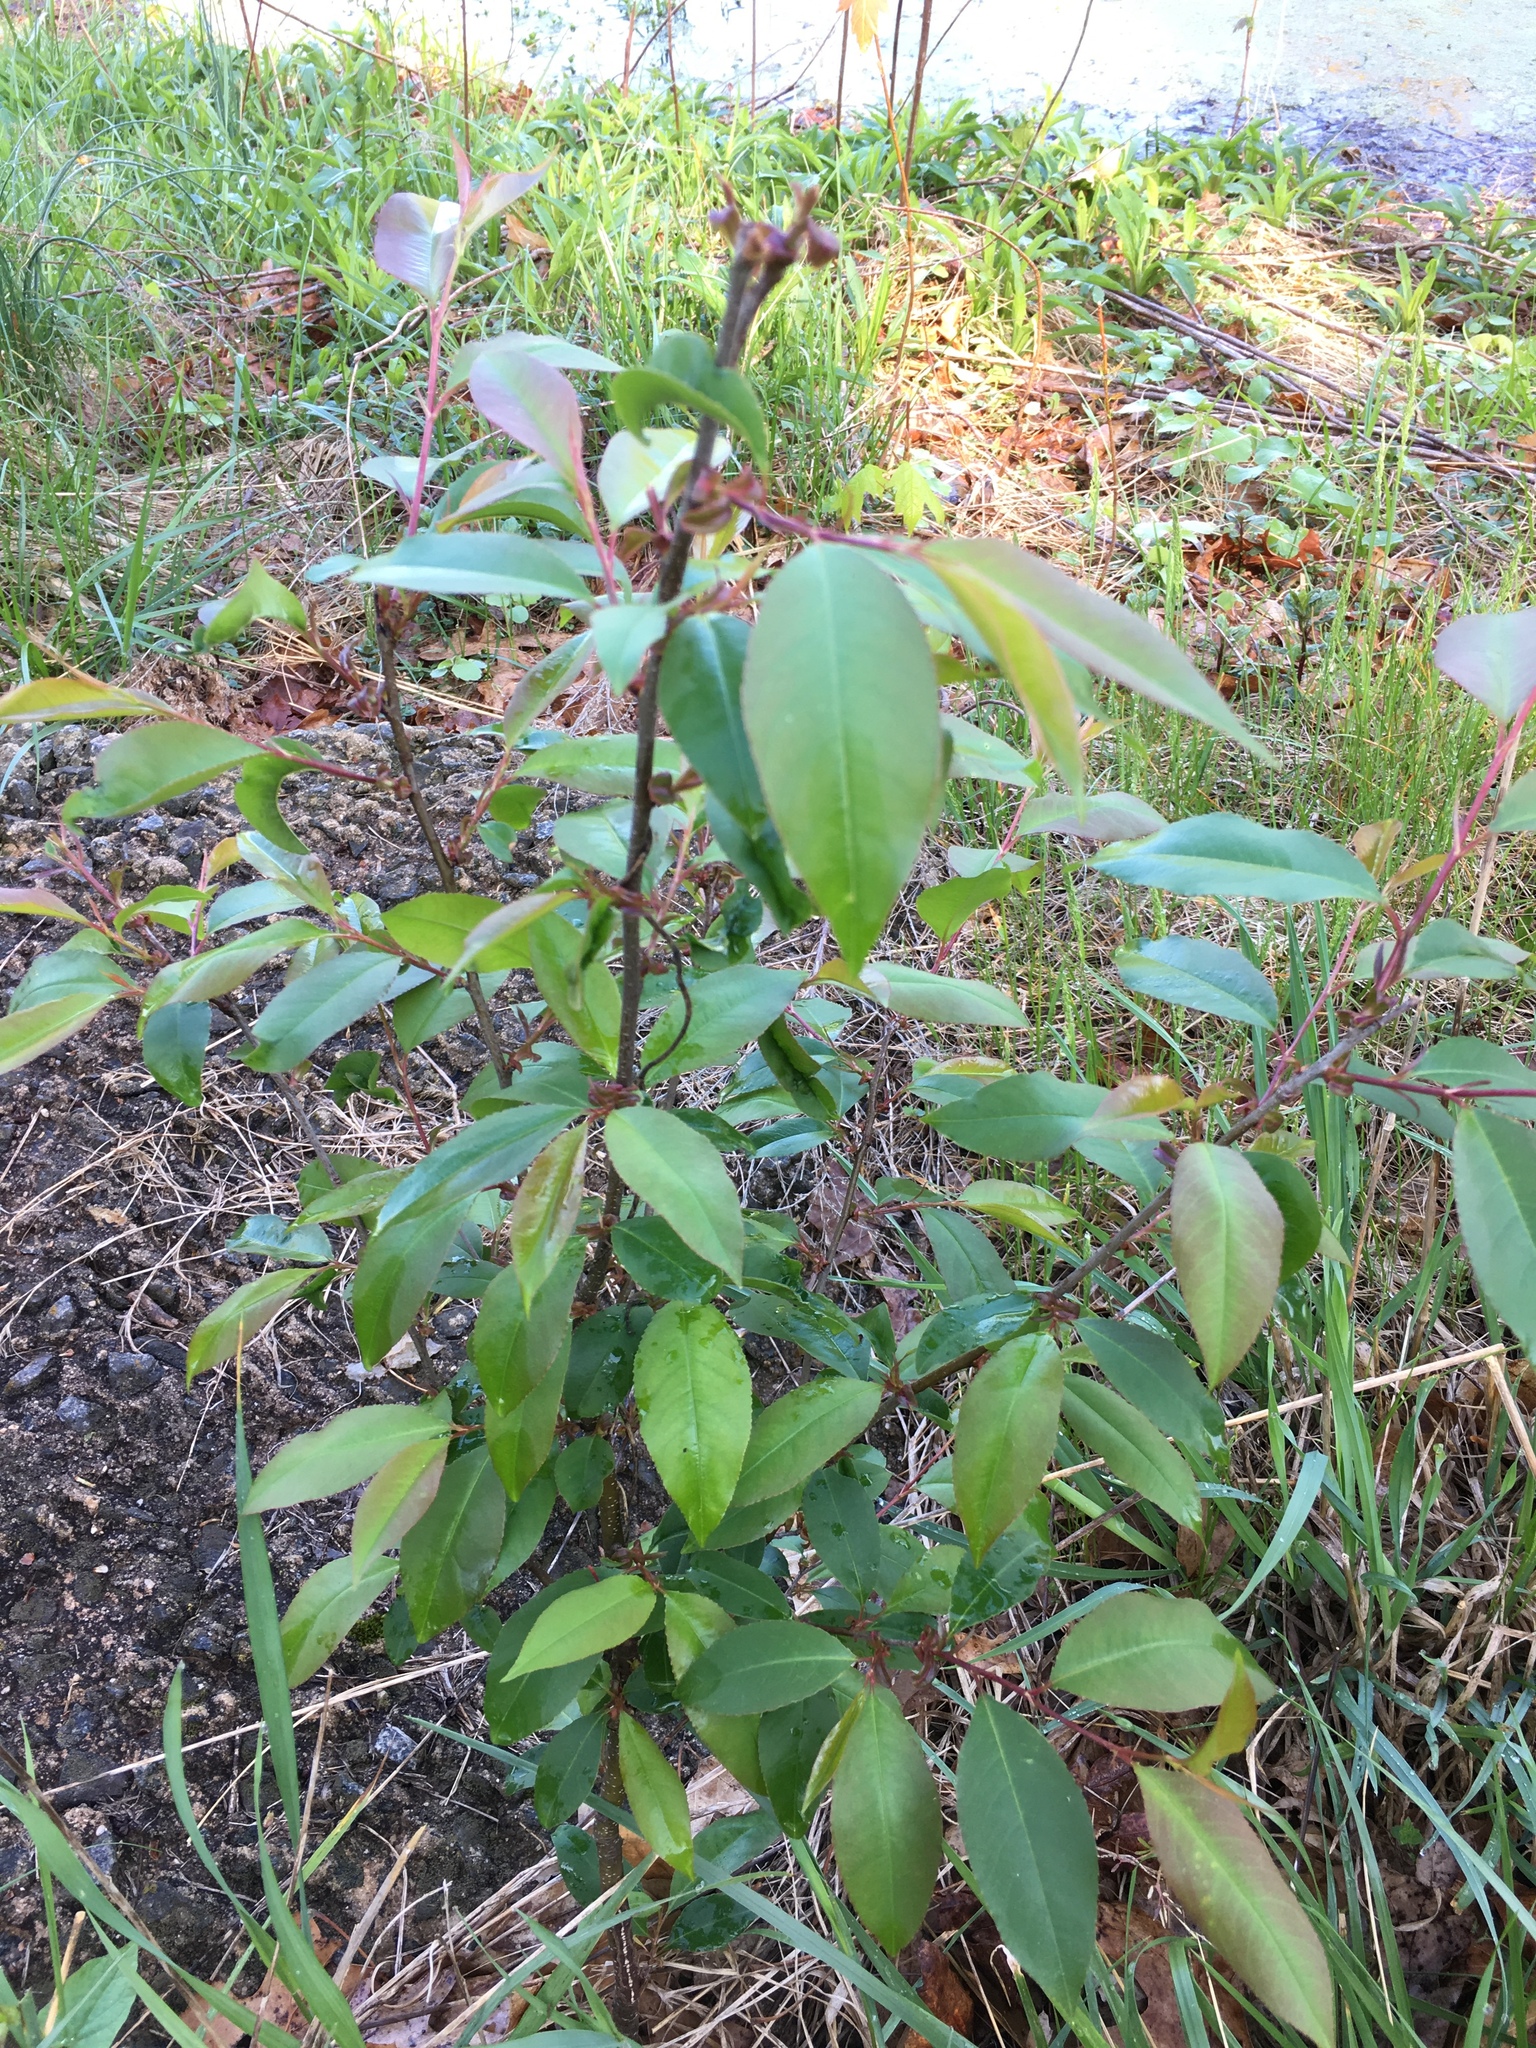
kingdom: Plantae
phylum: Tracheophyta
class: Magnoliopsida
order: Rosales
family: Rosaceae
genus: Prunus
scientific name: Prunus serotina
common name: Black cherry
